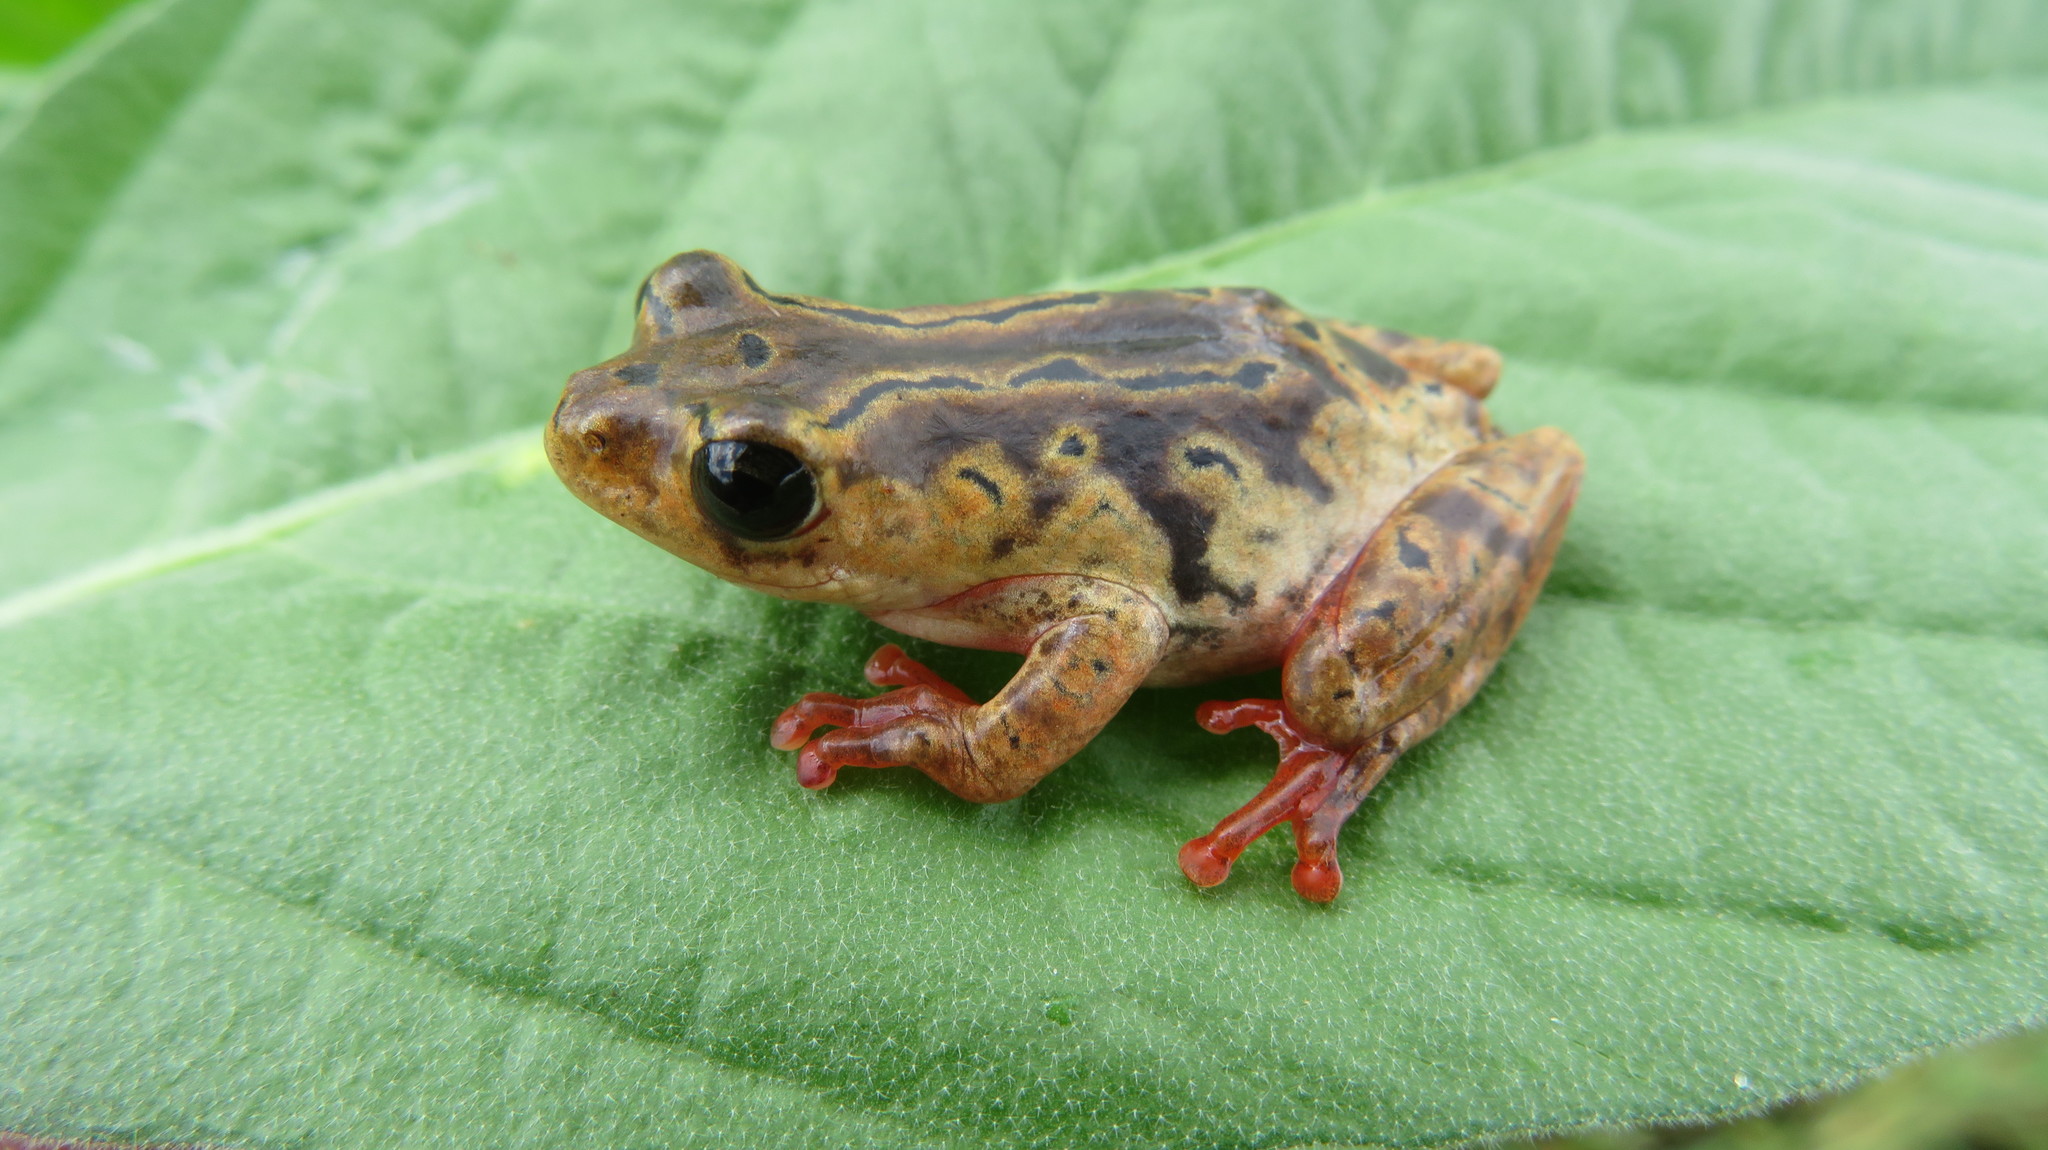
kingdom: Animalia
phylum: Chordata
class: Amphibia
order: Anura
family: Hyperoliidae
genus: Hyperolius
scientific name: Hyperolius glandicolor
